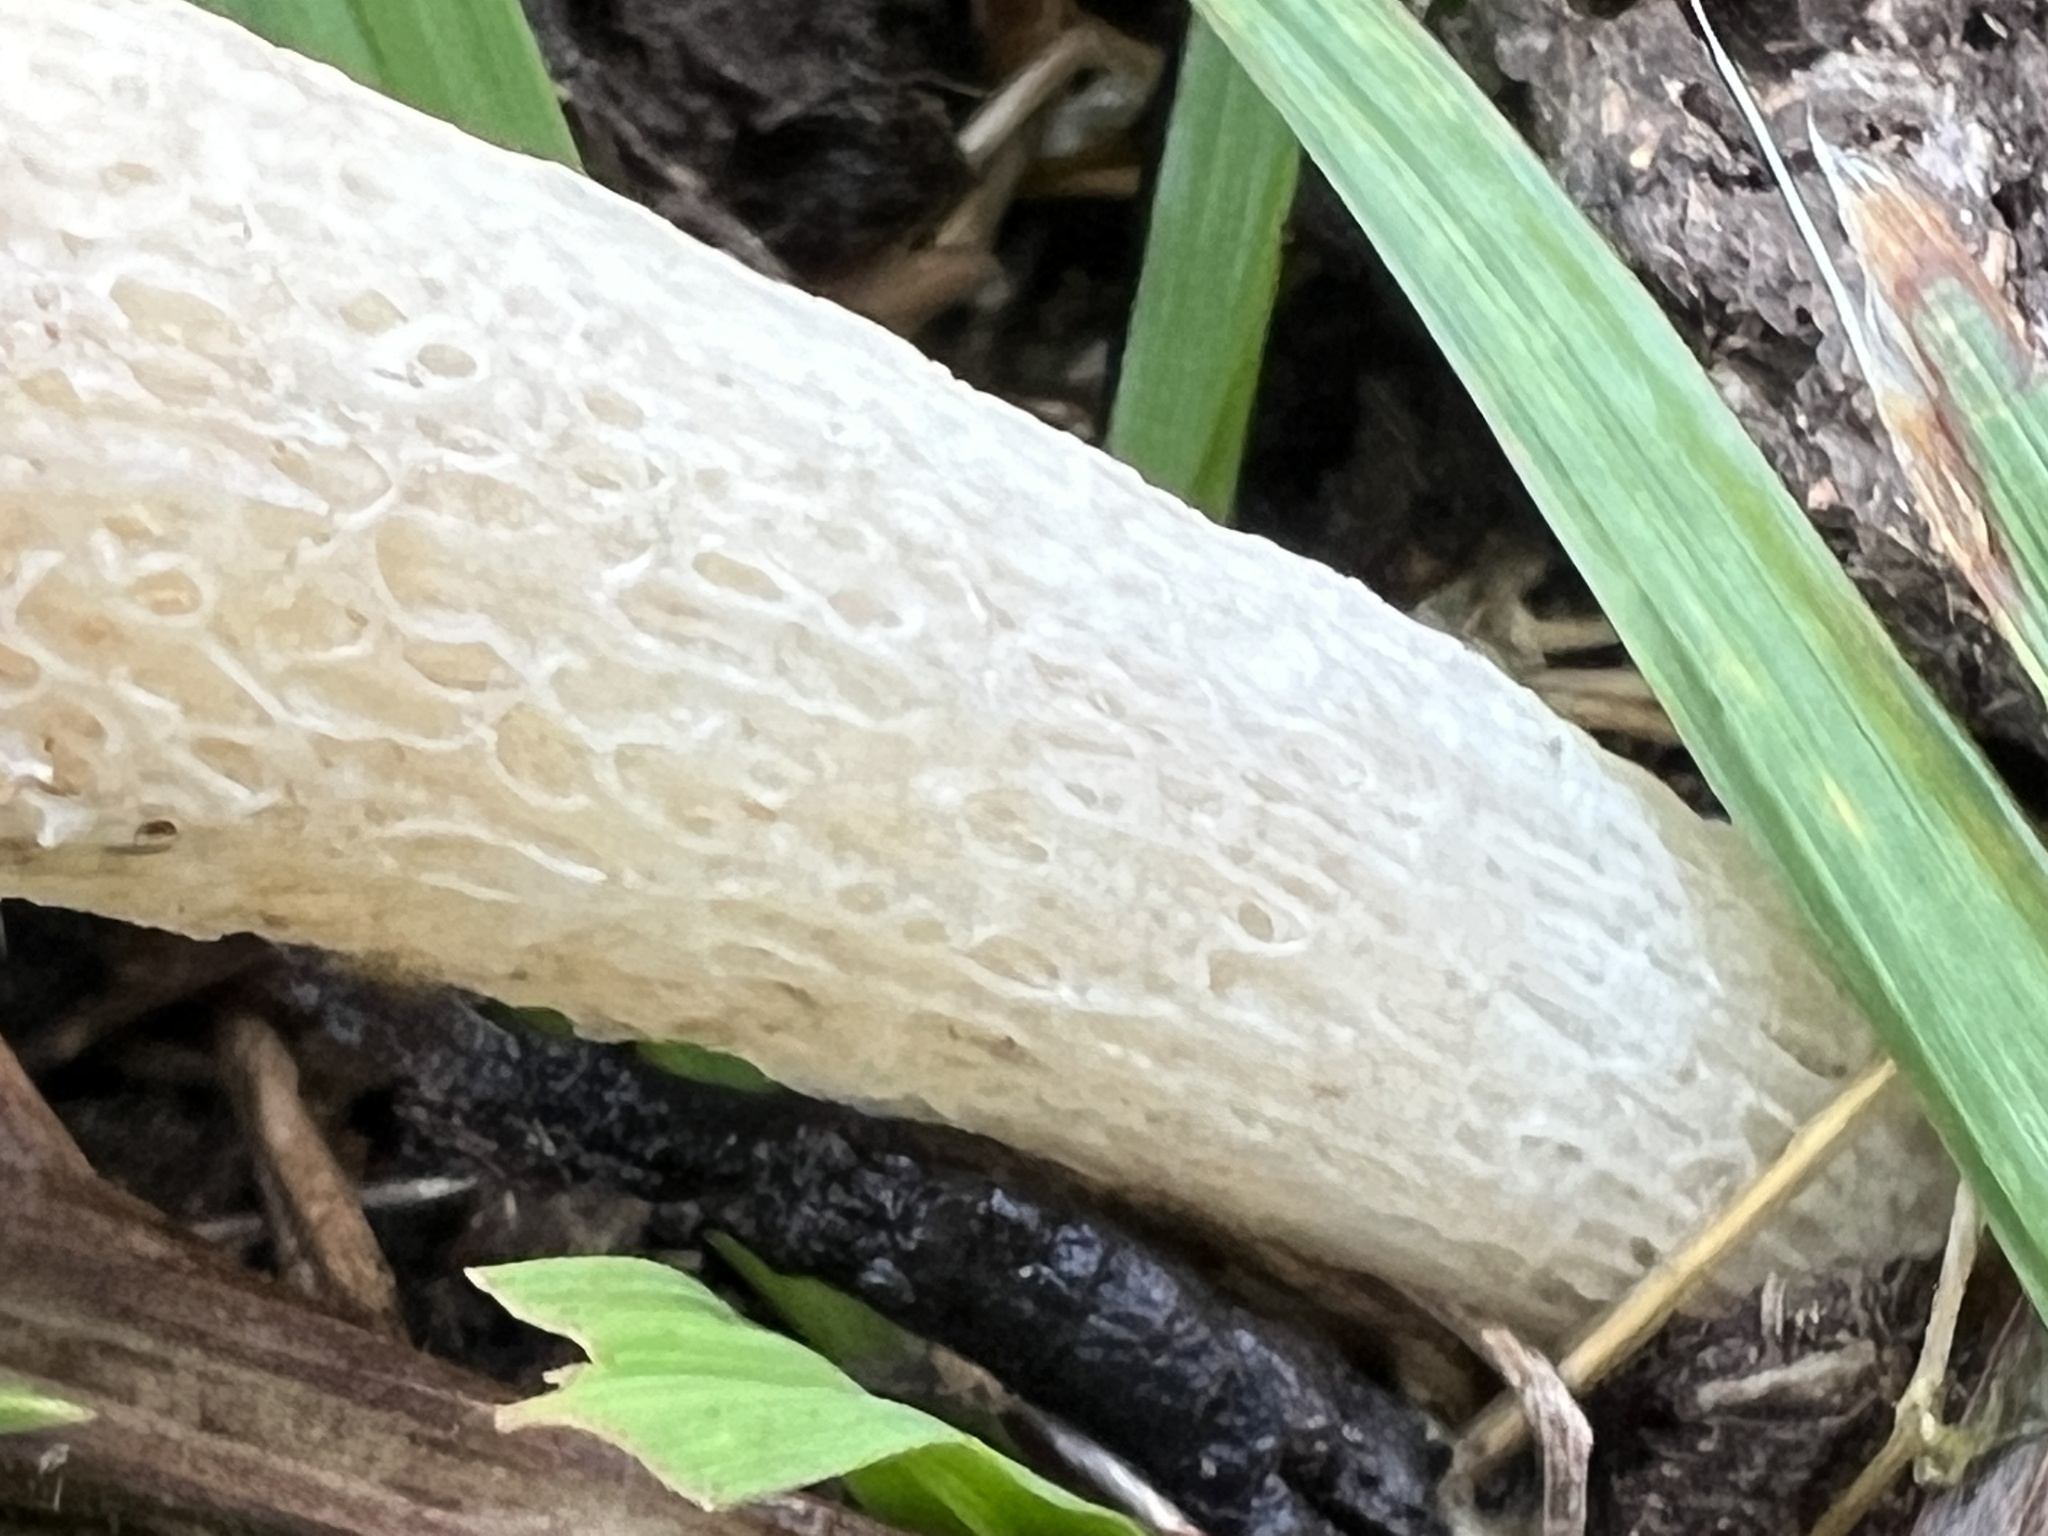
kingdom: Fungi
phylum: Basidiomycota
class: Agaricomycetes
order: Phallales
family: Phallaceae
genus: Lysurus
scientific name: Lysurus cruciatus
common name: Lizard's claw
